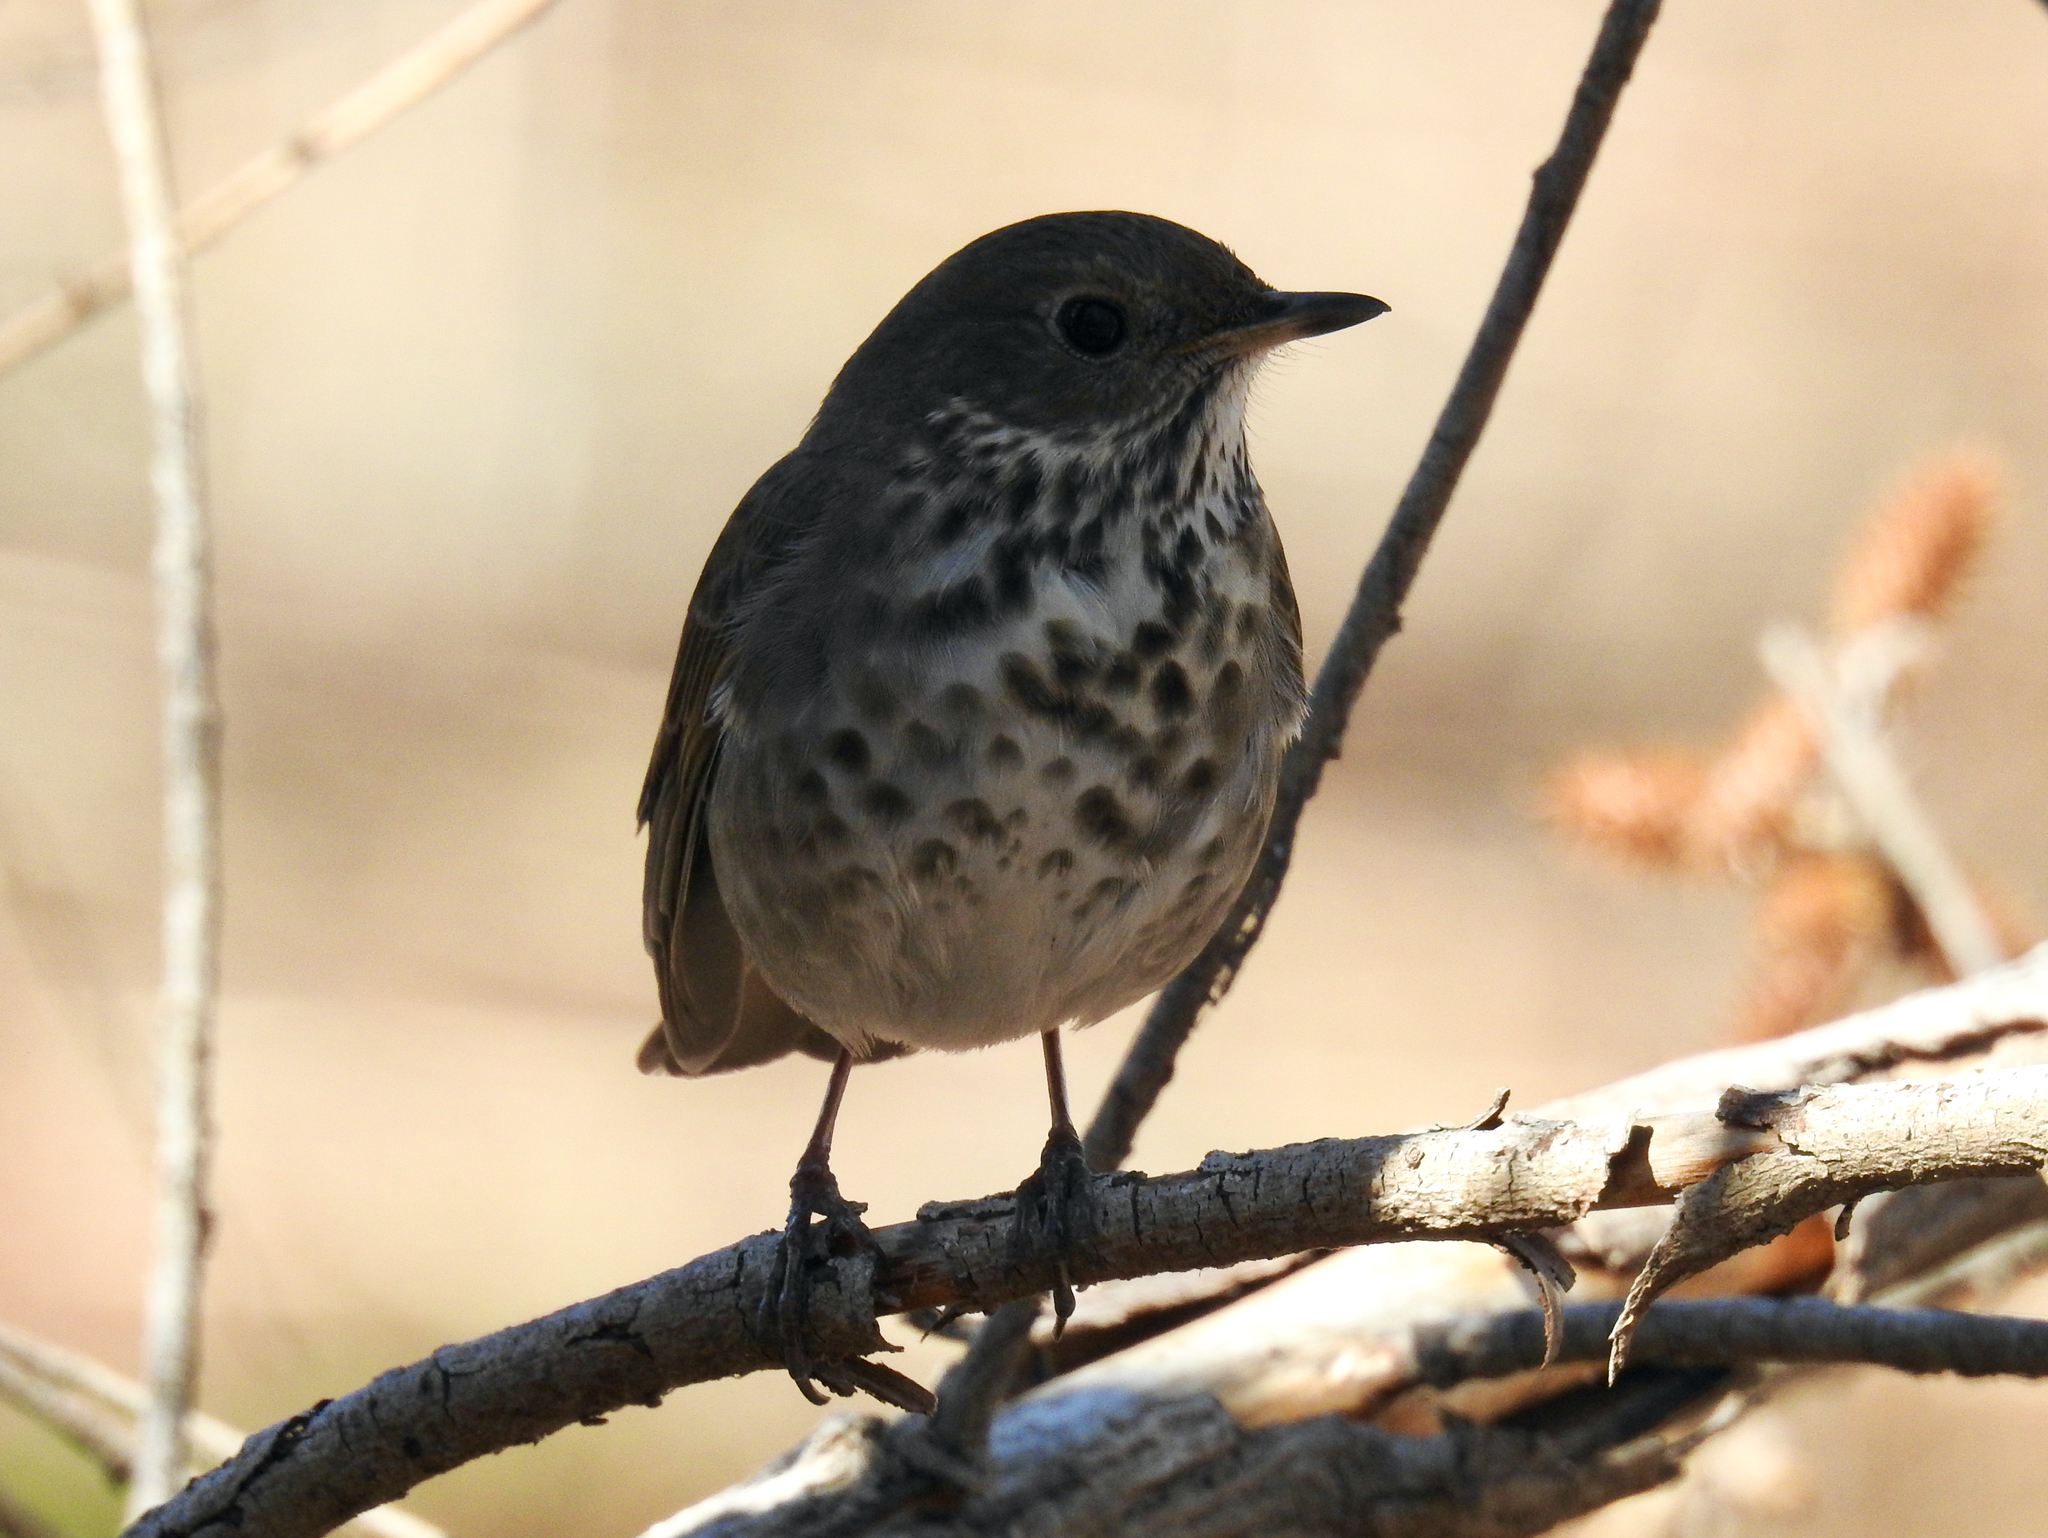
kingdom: Animalia
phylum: Chordata
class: Aves
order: Passeriformes
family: Turdidae
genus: Catharus
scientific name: Catharus guttatus
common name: Hermit thrush
